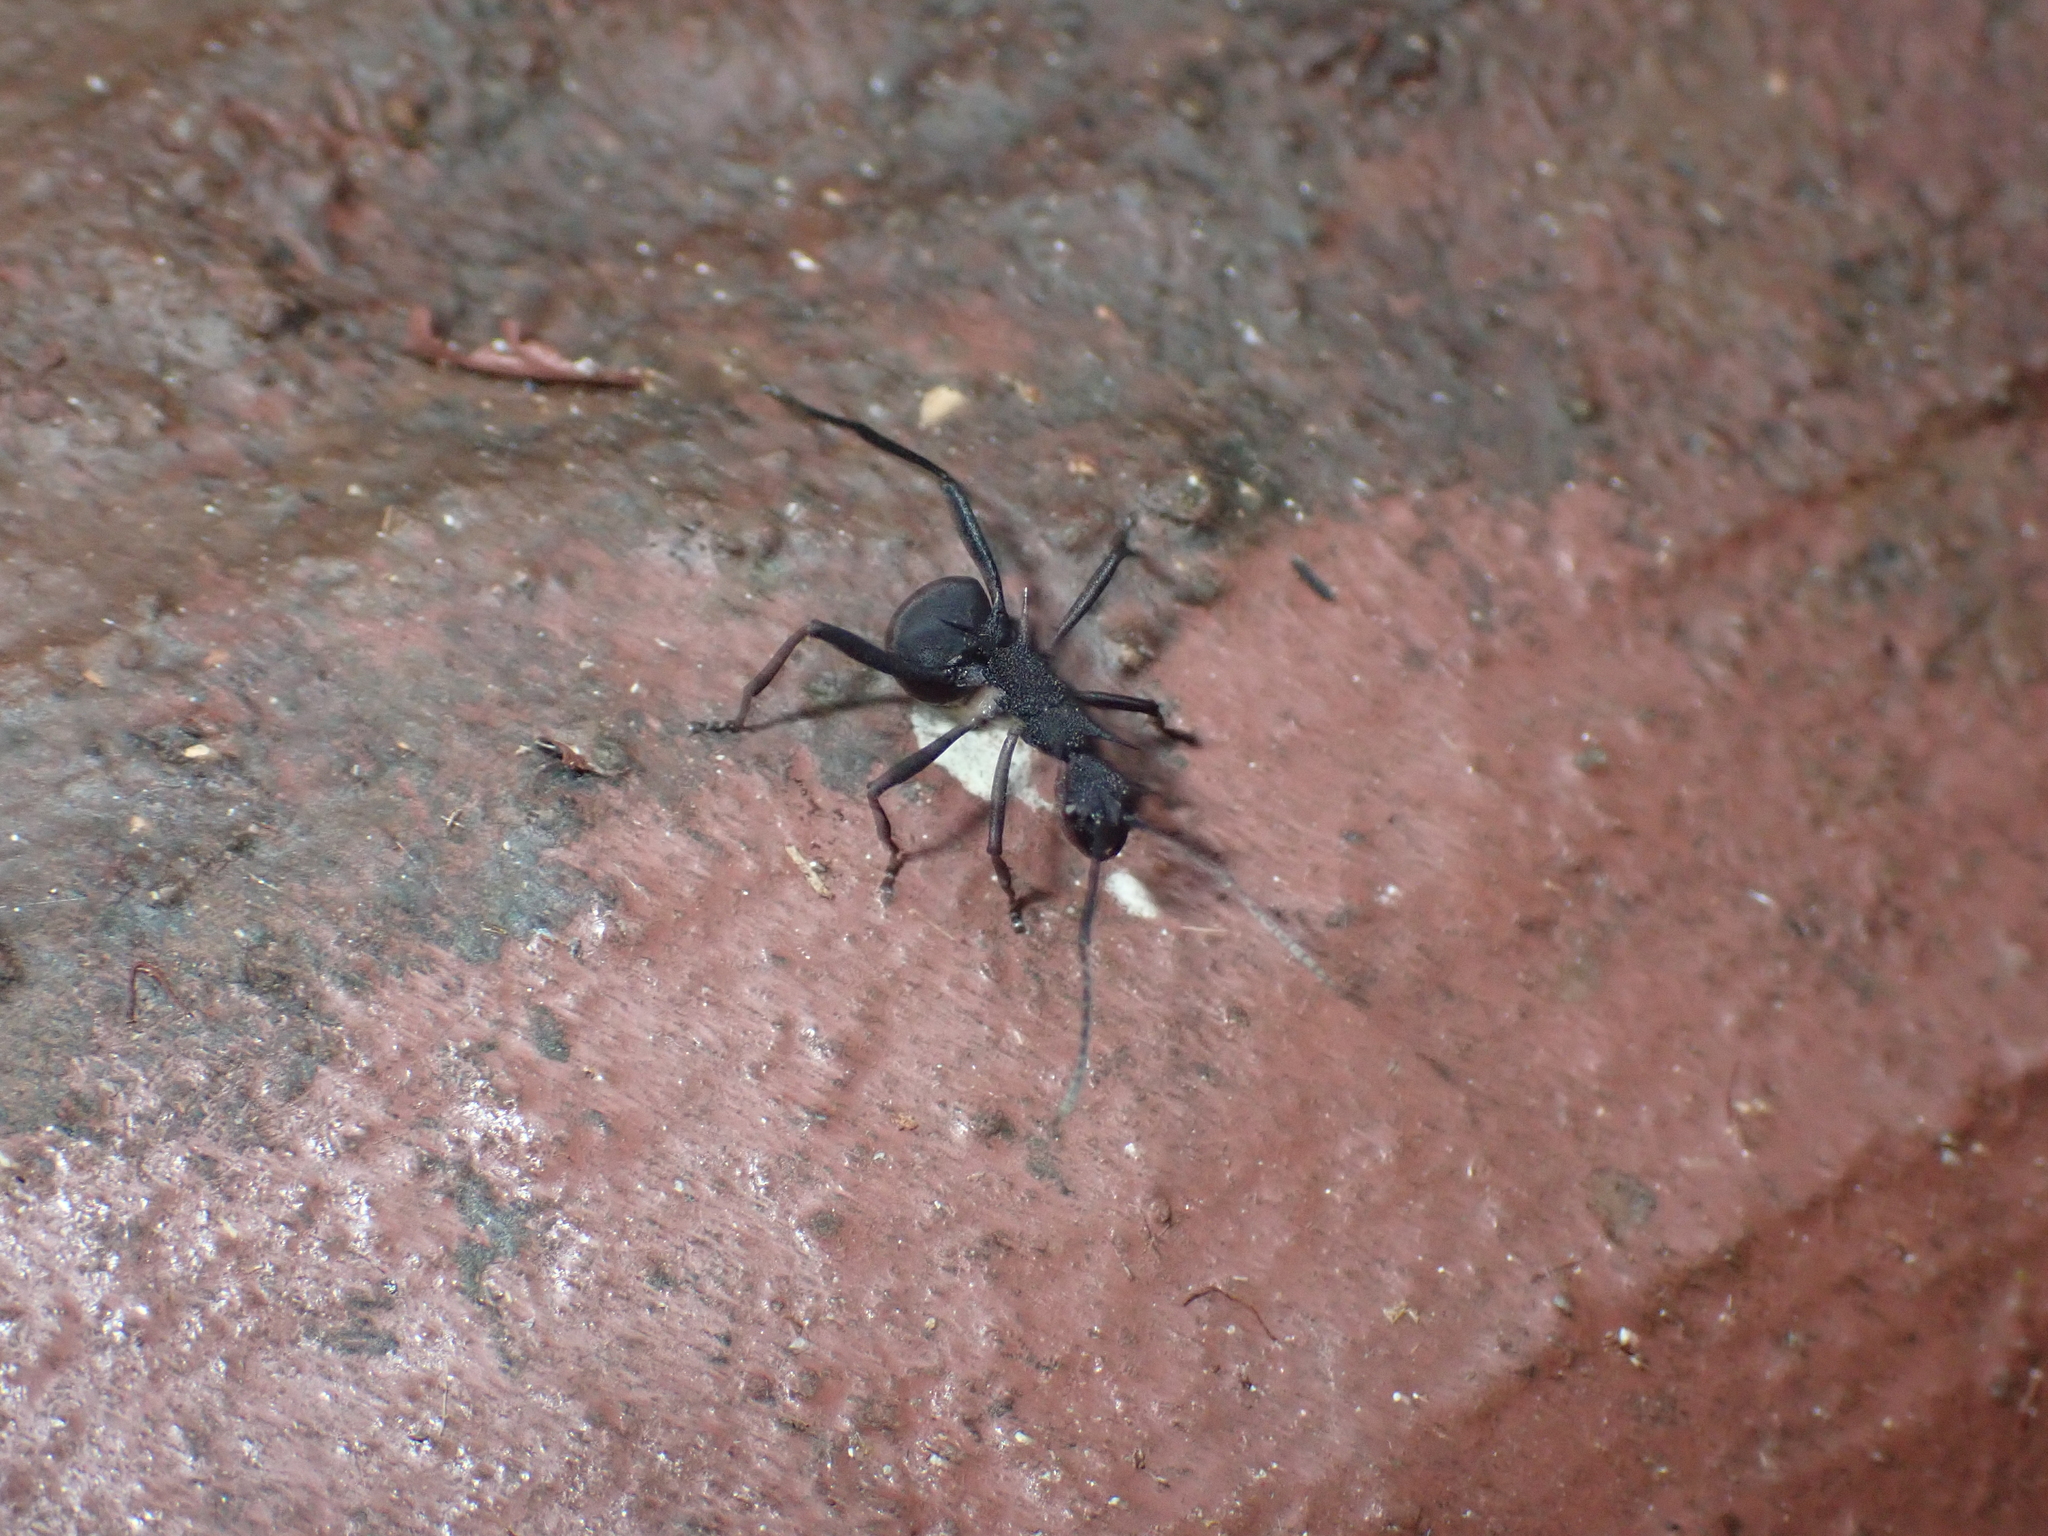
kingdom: Animalia
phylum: Arthropoda
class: Insecta
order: Hymenoptera
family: Formicidae
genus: Polyrhachis
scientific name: Polyrhachis armata
